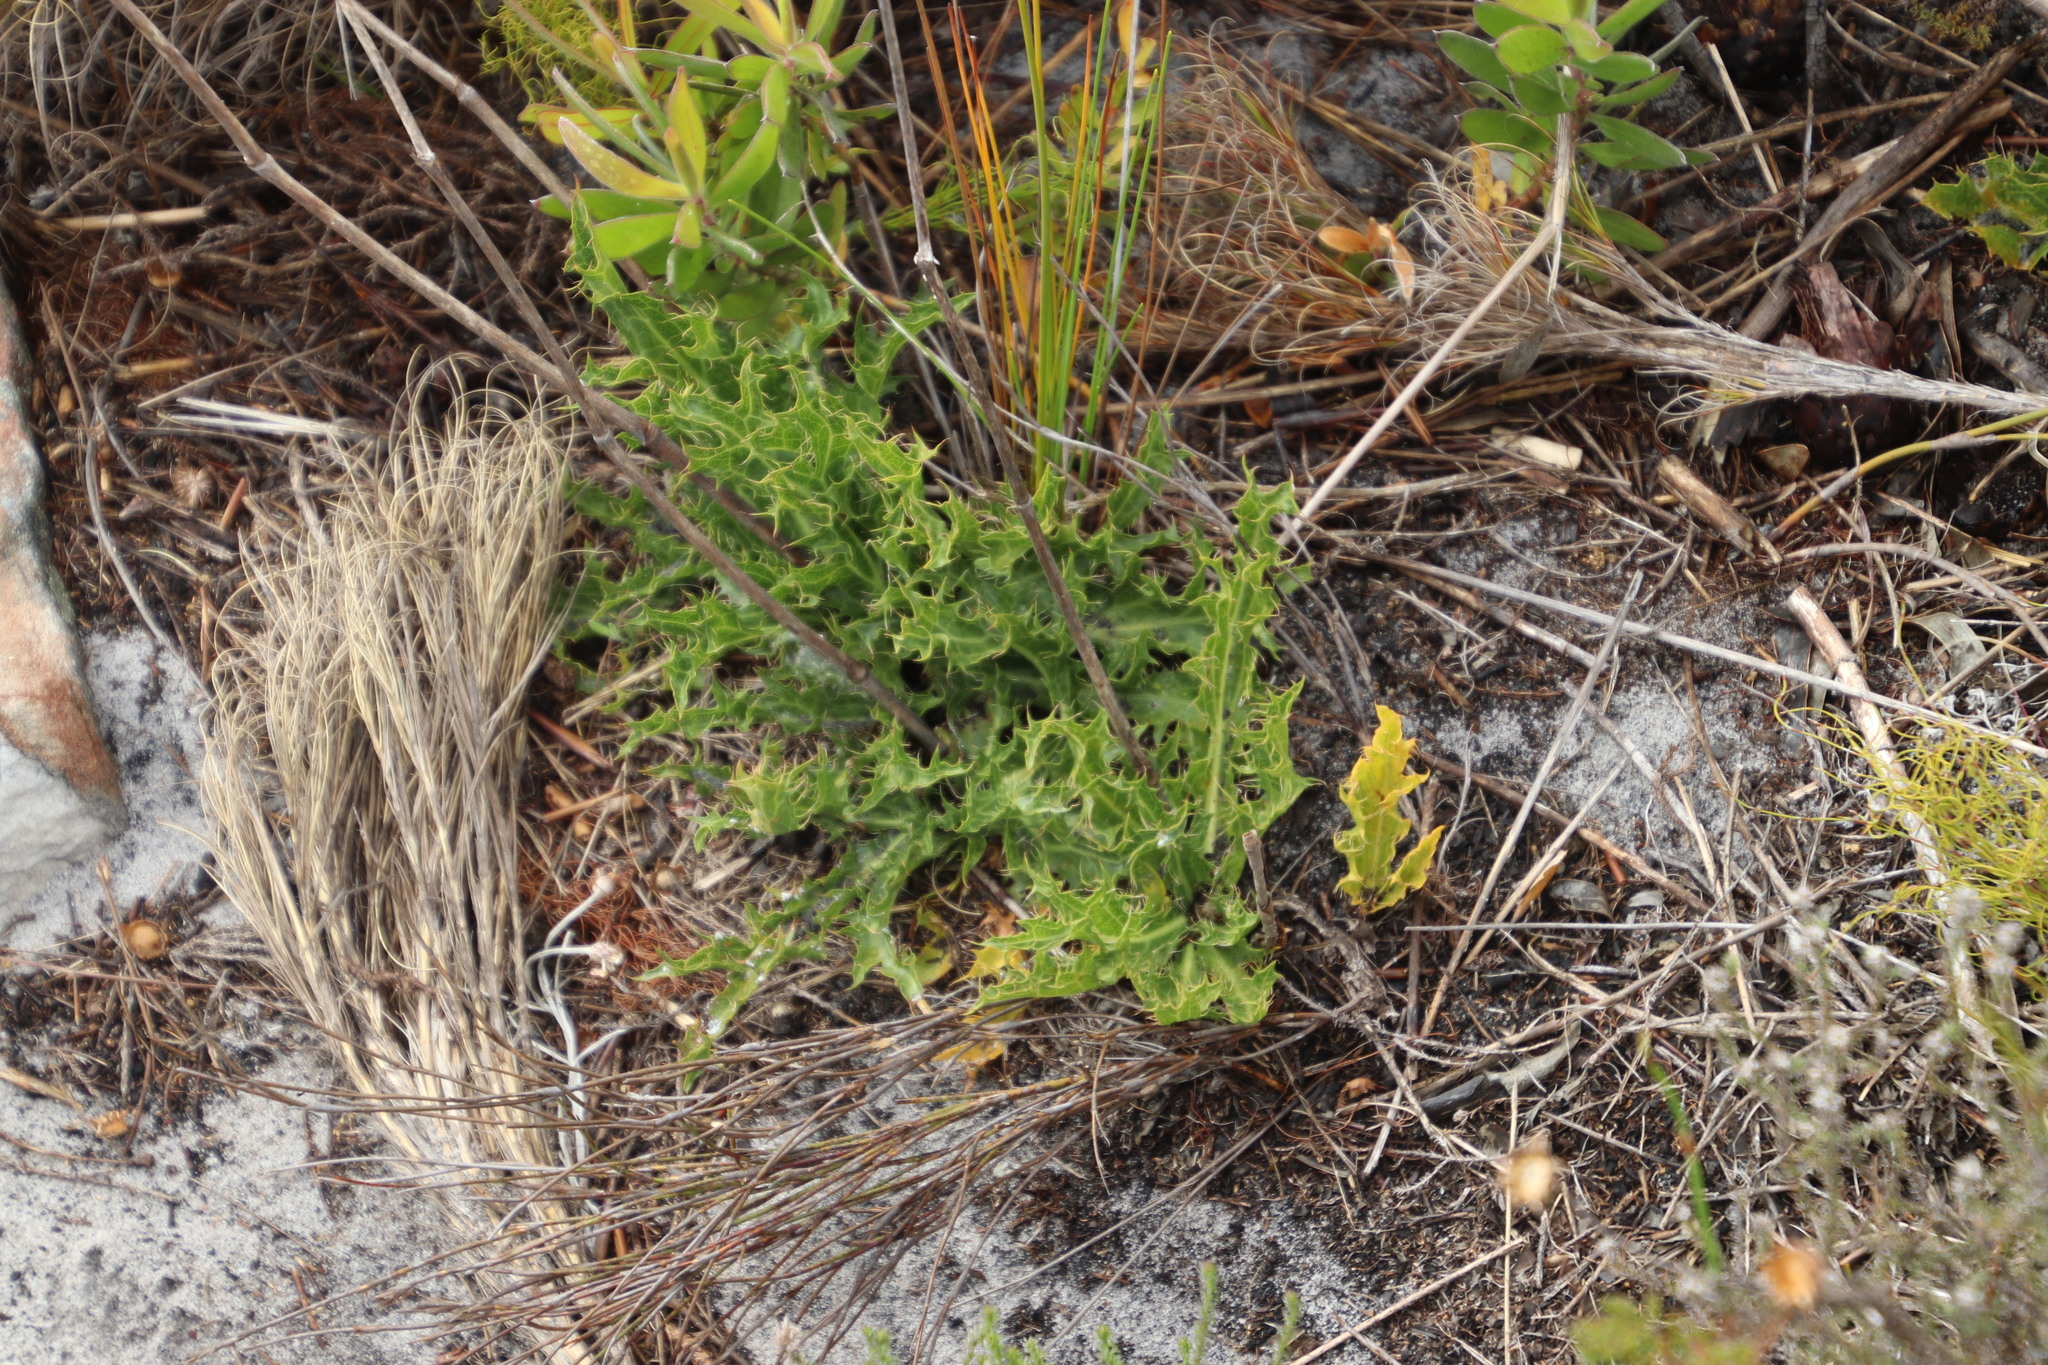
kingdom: Plantae
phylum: Tracheophyta
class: Magnoliopsida
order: Apiales
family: Apiaceae
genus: Lichtensteinia
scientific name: Lichtensteinia lacera
